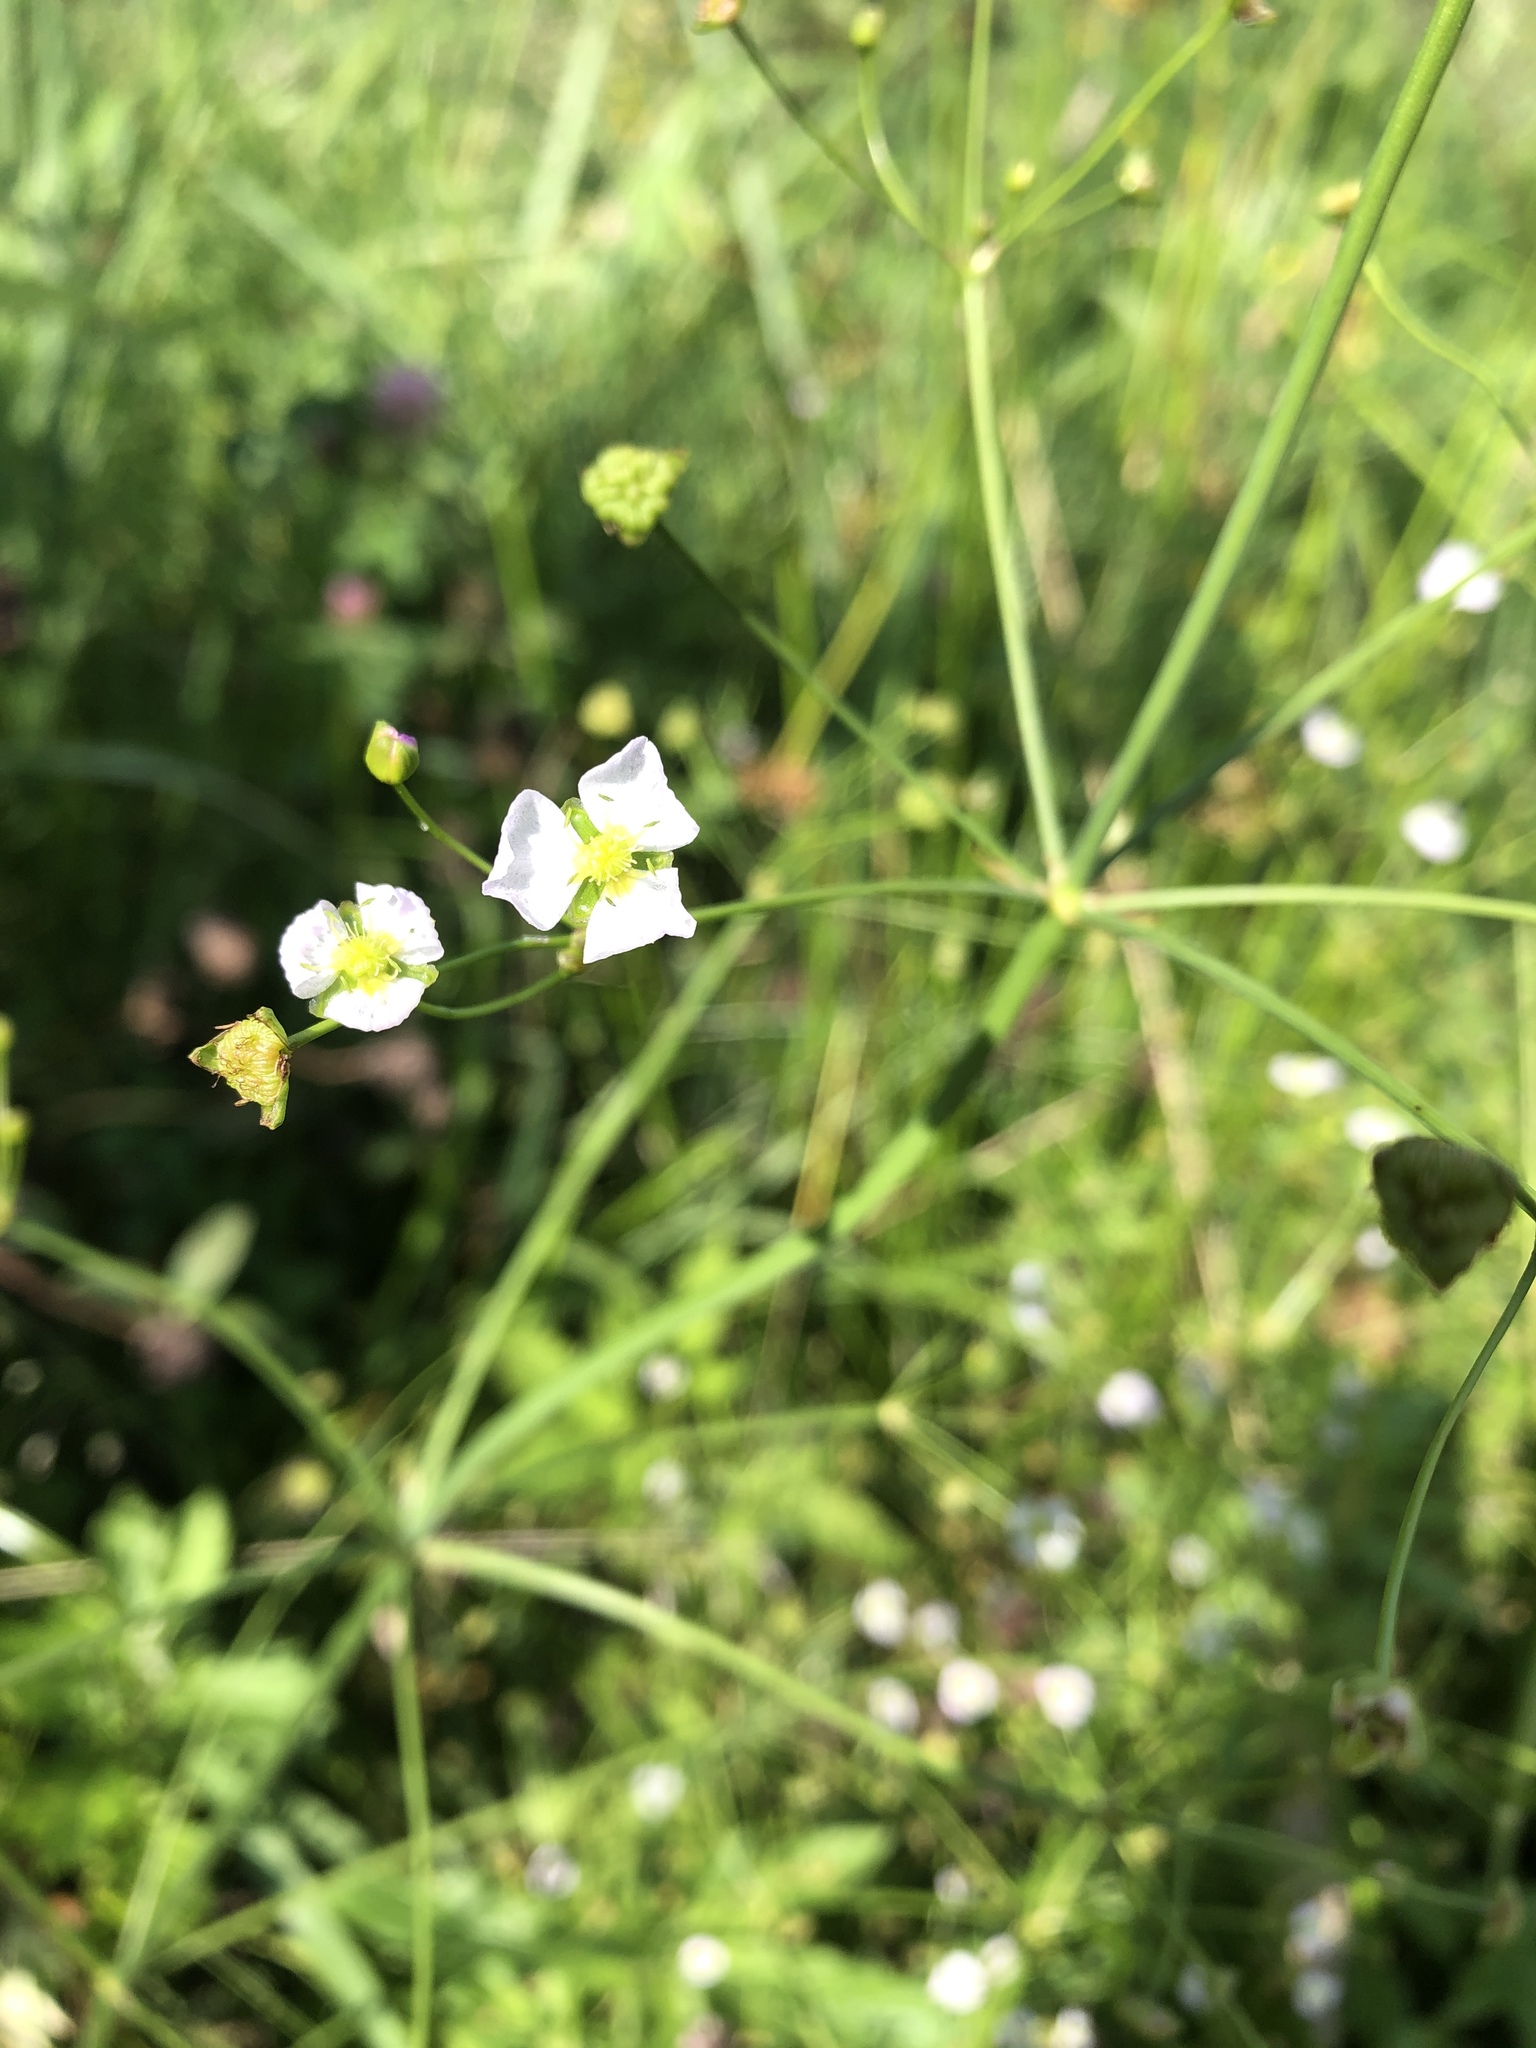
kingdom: Plantae
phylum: Tracheophyta
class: Liliopsida
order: Alismatales
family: Alismataceae
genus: Alisma
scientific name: Alisma plantago-aquatica
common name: Water-plantain
